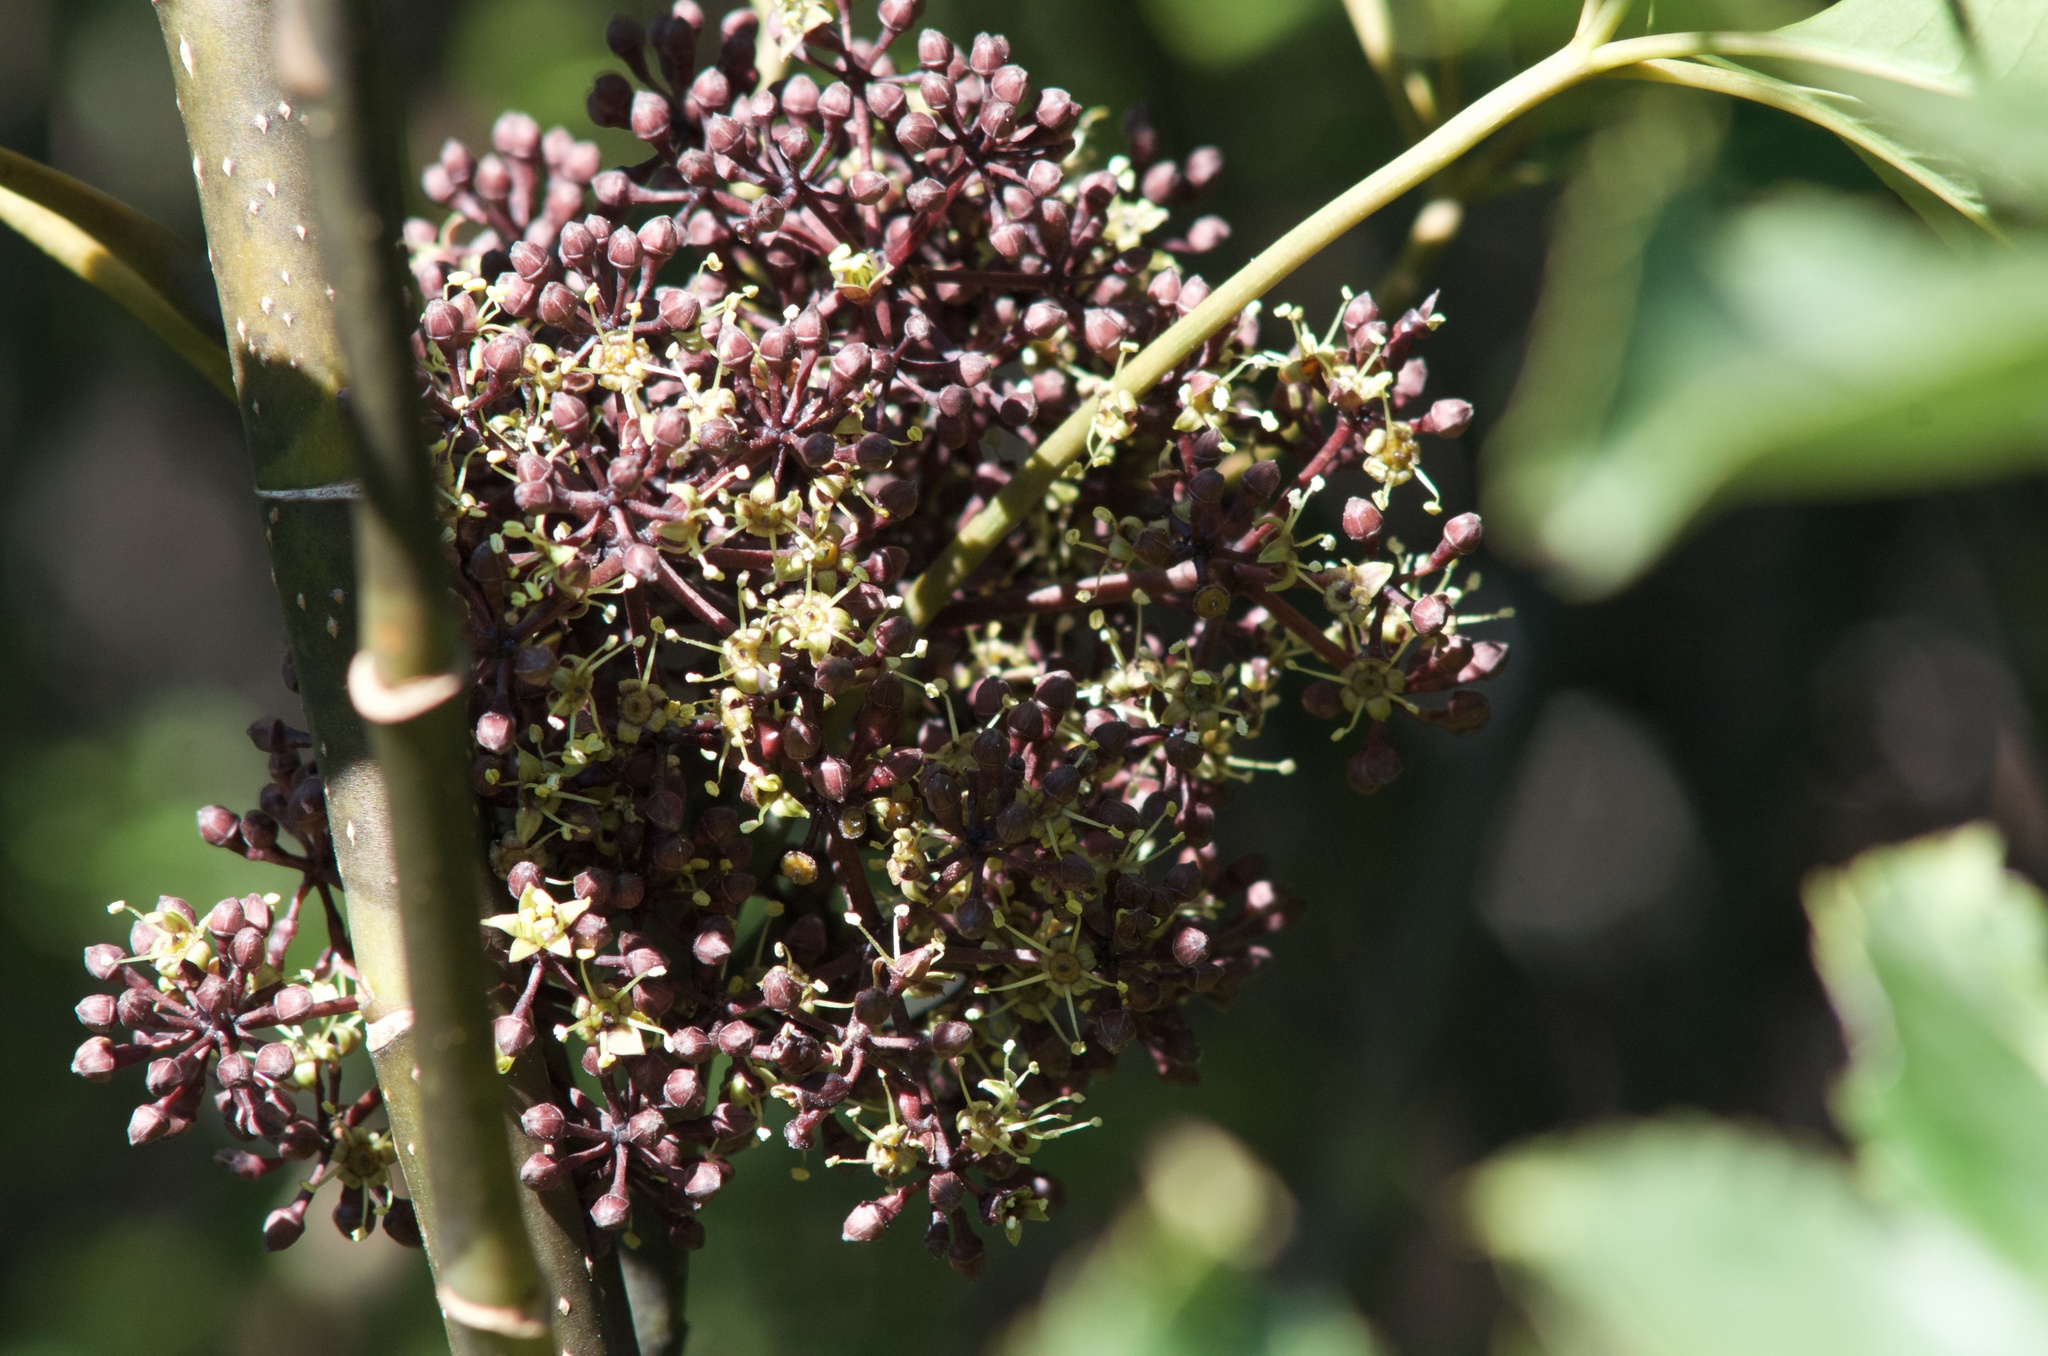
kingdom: Plantae
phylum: Tracheophyta
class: Magnoliopsida
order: Apiales
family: Araliaceae
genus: Neopanax
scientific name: Neopanax arboreus
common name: Five-fingers
